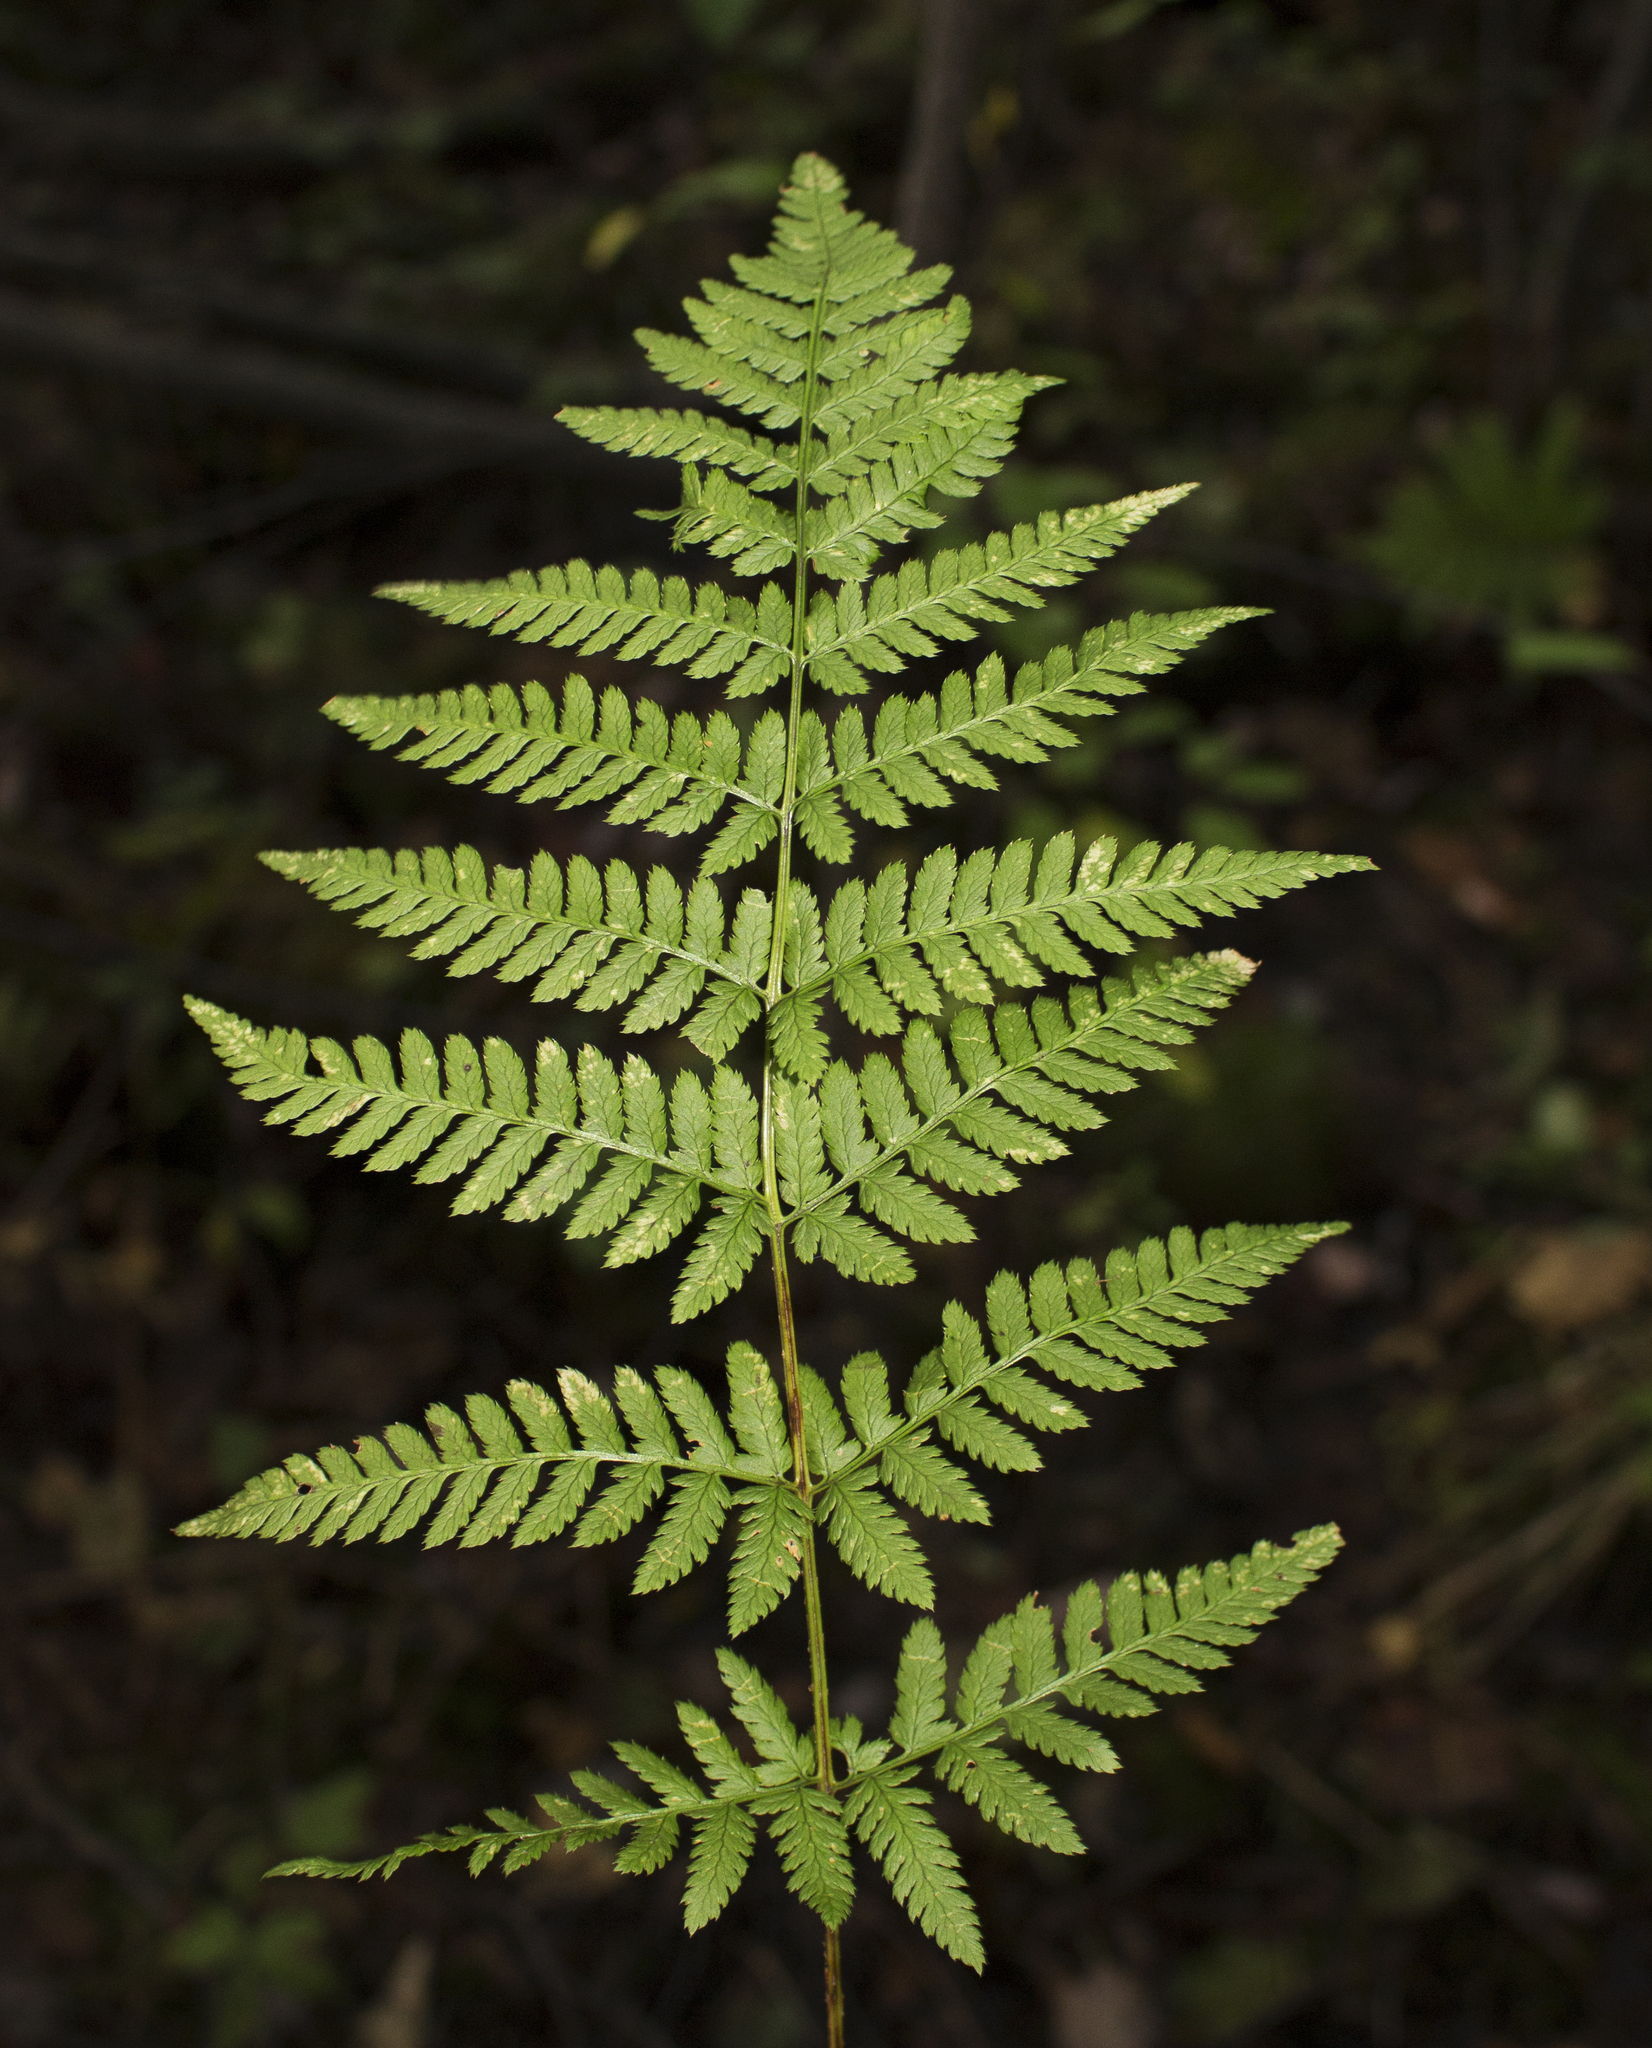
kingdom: Plantae
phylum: Tracheophyta
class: Polypodiopsida
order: Polypodiales
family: Dryopteridaceae
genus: Dryopteris
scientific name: Dryopteris carthusiana
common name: Narrow buckler-fern
